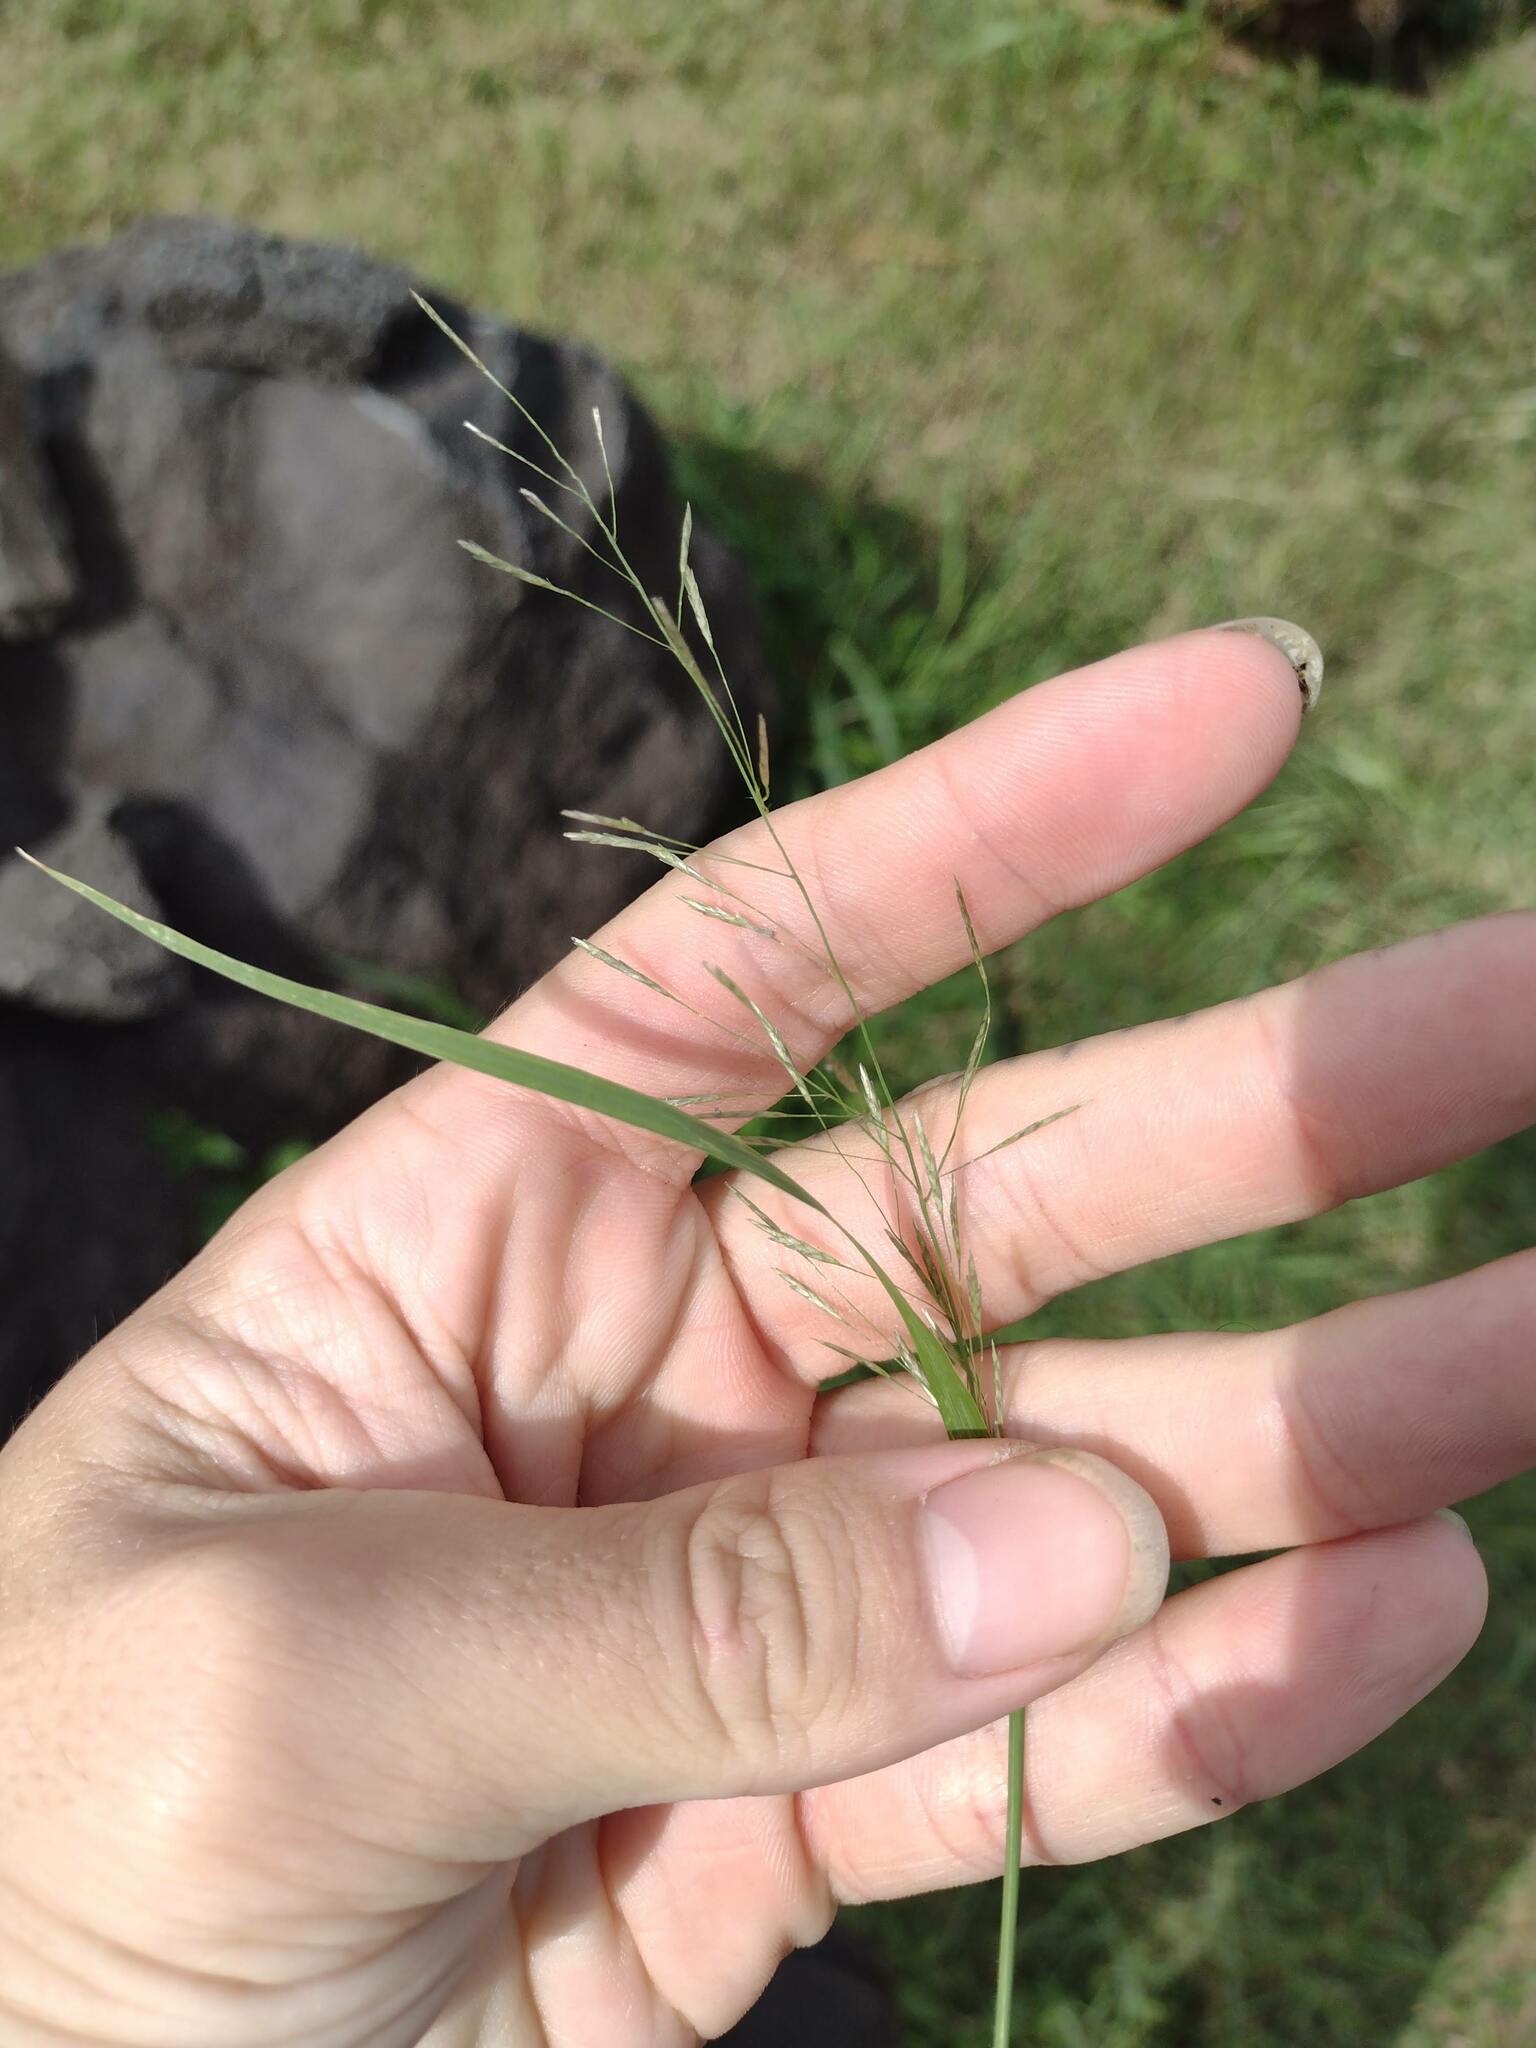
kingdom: Plantae
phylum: Tracheophyta
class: Liliopsida
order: Poales
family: Poaceae
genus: Eragrostis
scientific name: Eragrostis tenuifolia
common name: Elastic grass
